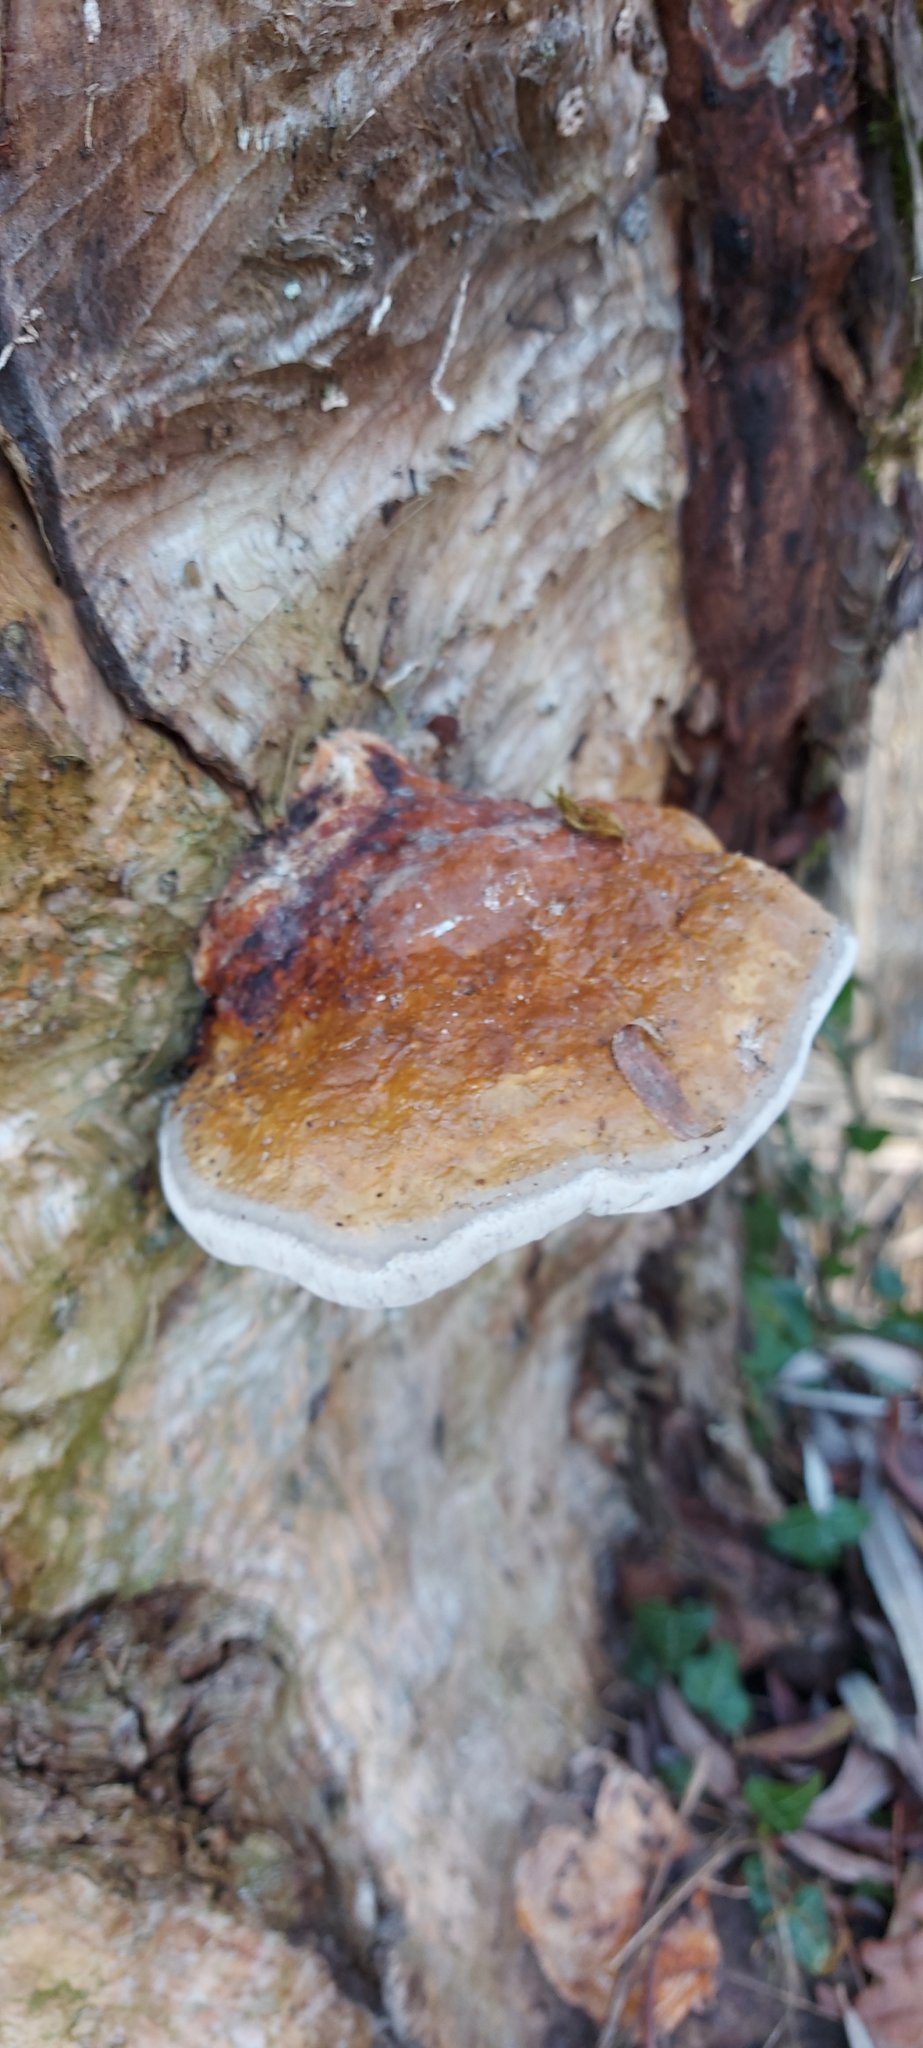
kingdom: Fungi
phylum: Basidiomycota
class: Agaricomycetes
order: Polyporales
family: Fomitopsidaceae
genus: Fomitopsis
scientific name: Fomitopsis pinicola
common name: Red-belted bracket
